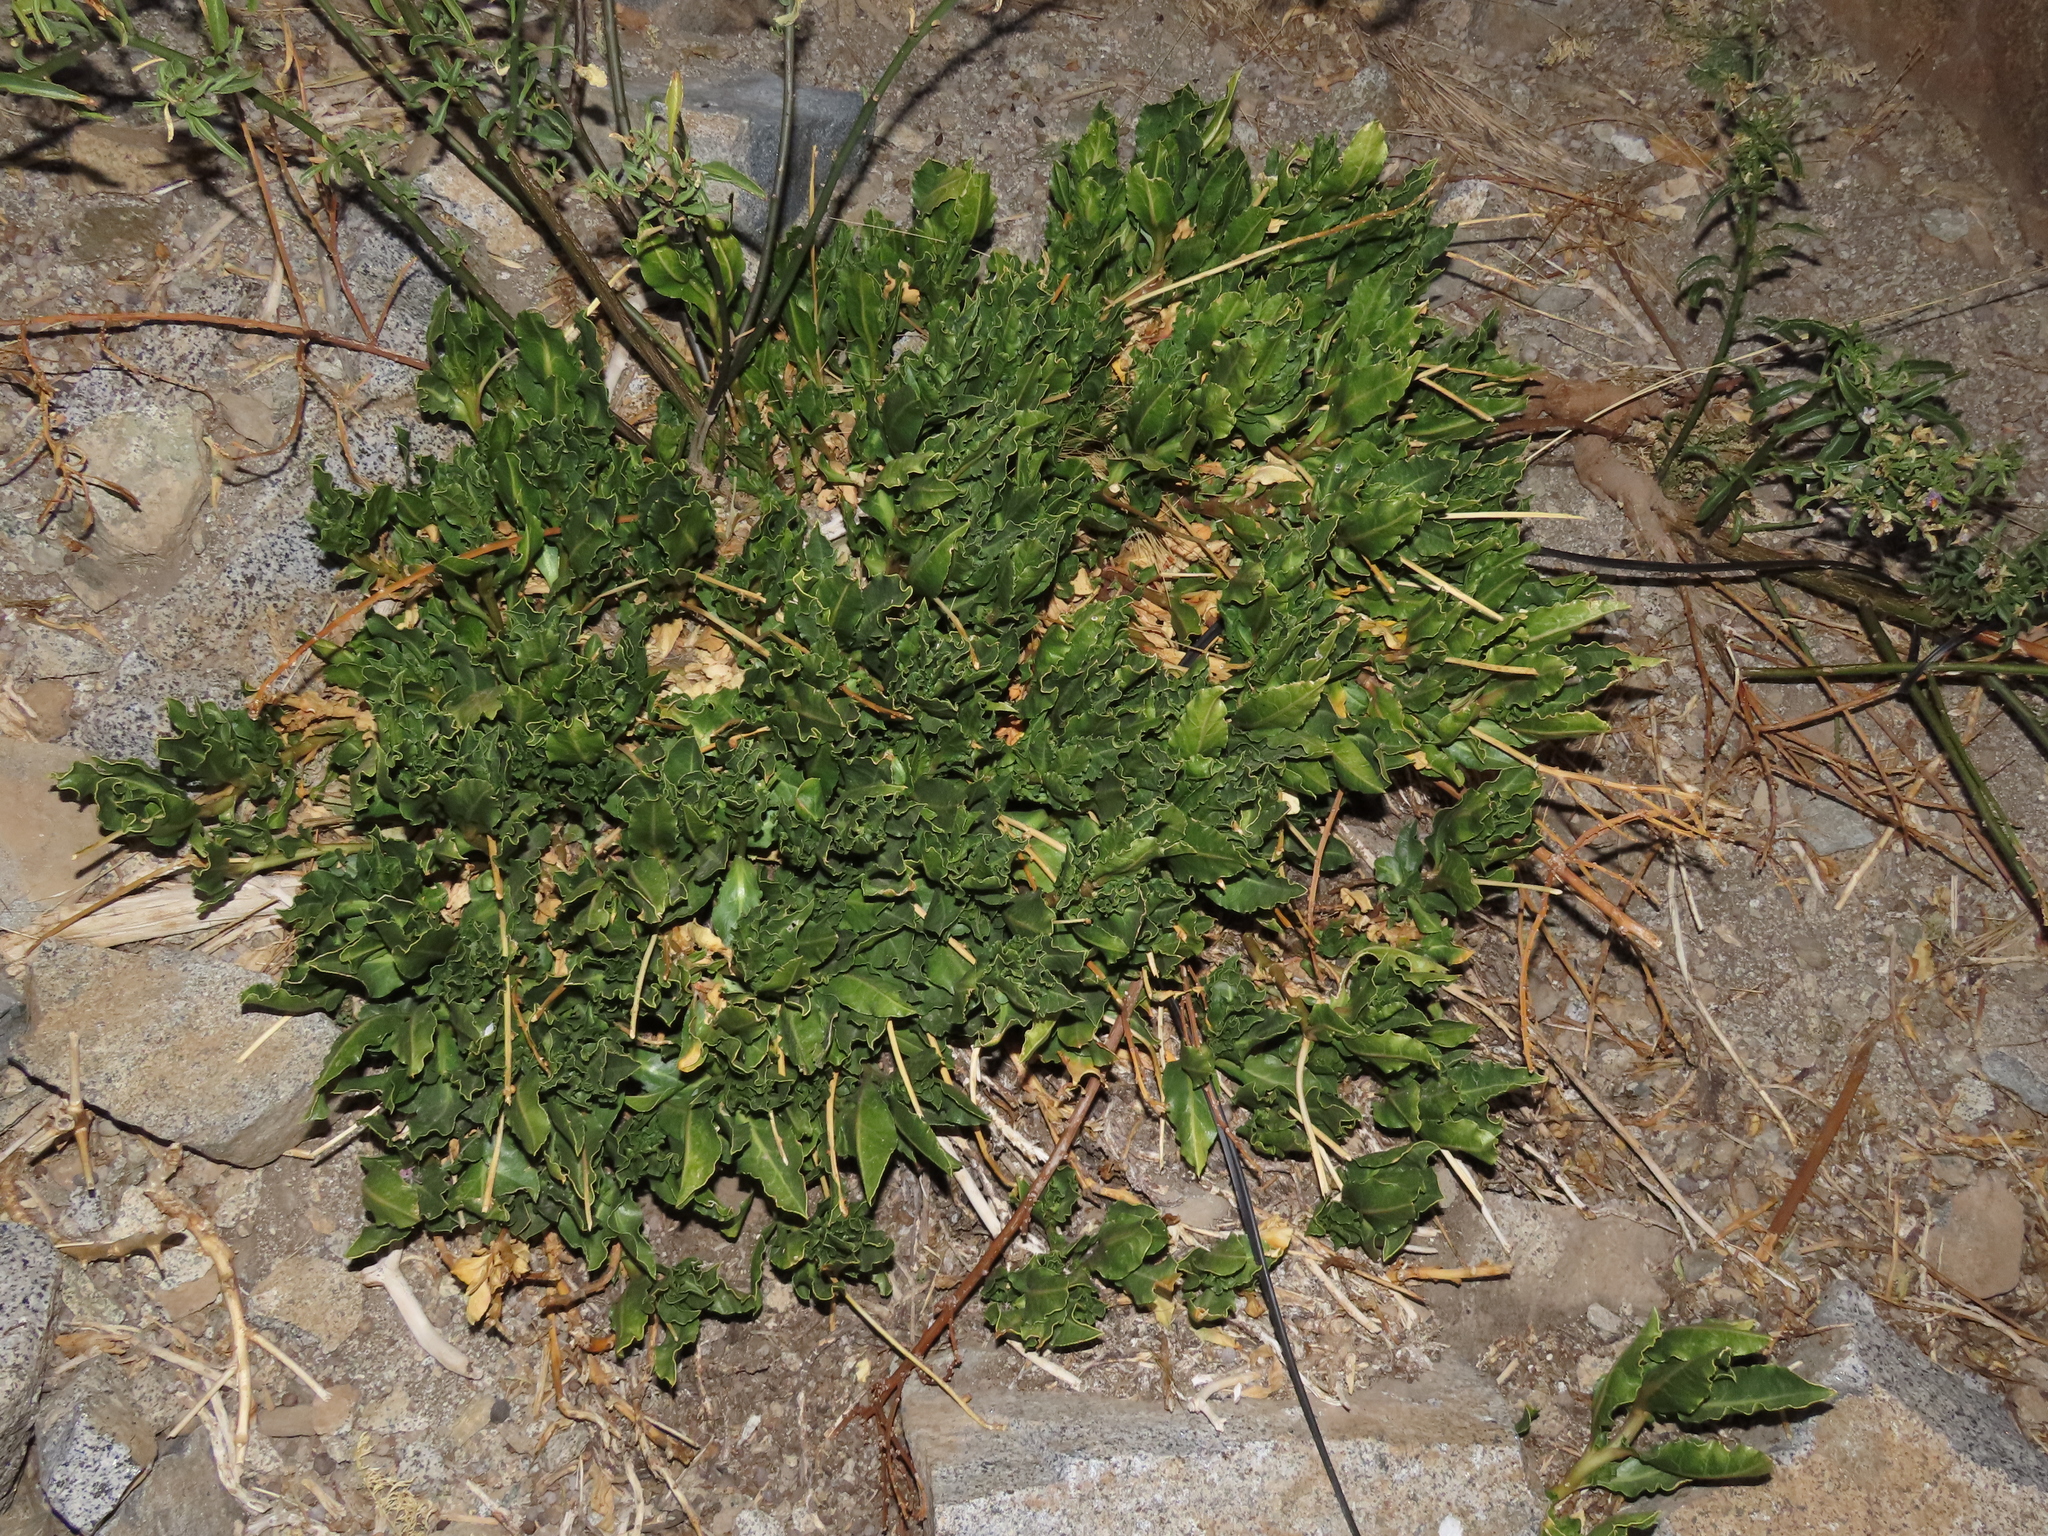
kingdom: Plantae
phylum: Tracheophyta
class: Magnoliopsida
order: Caryophyllales
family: Phytolaccaceae
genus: Anisomeria
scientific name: Anisomeria coriacea
